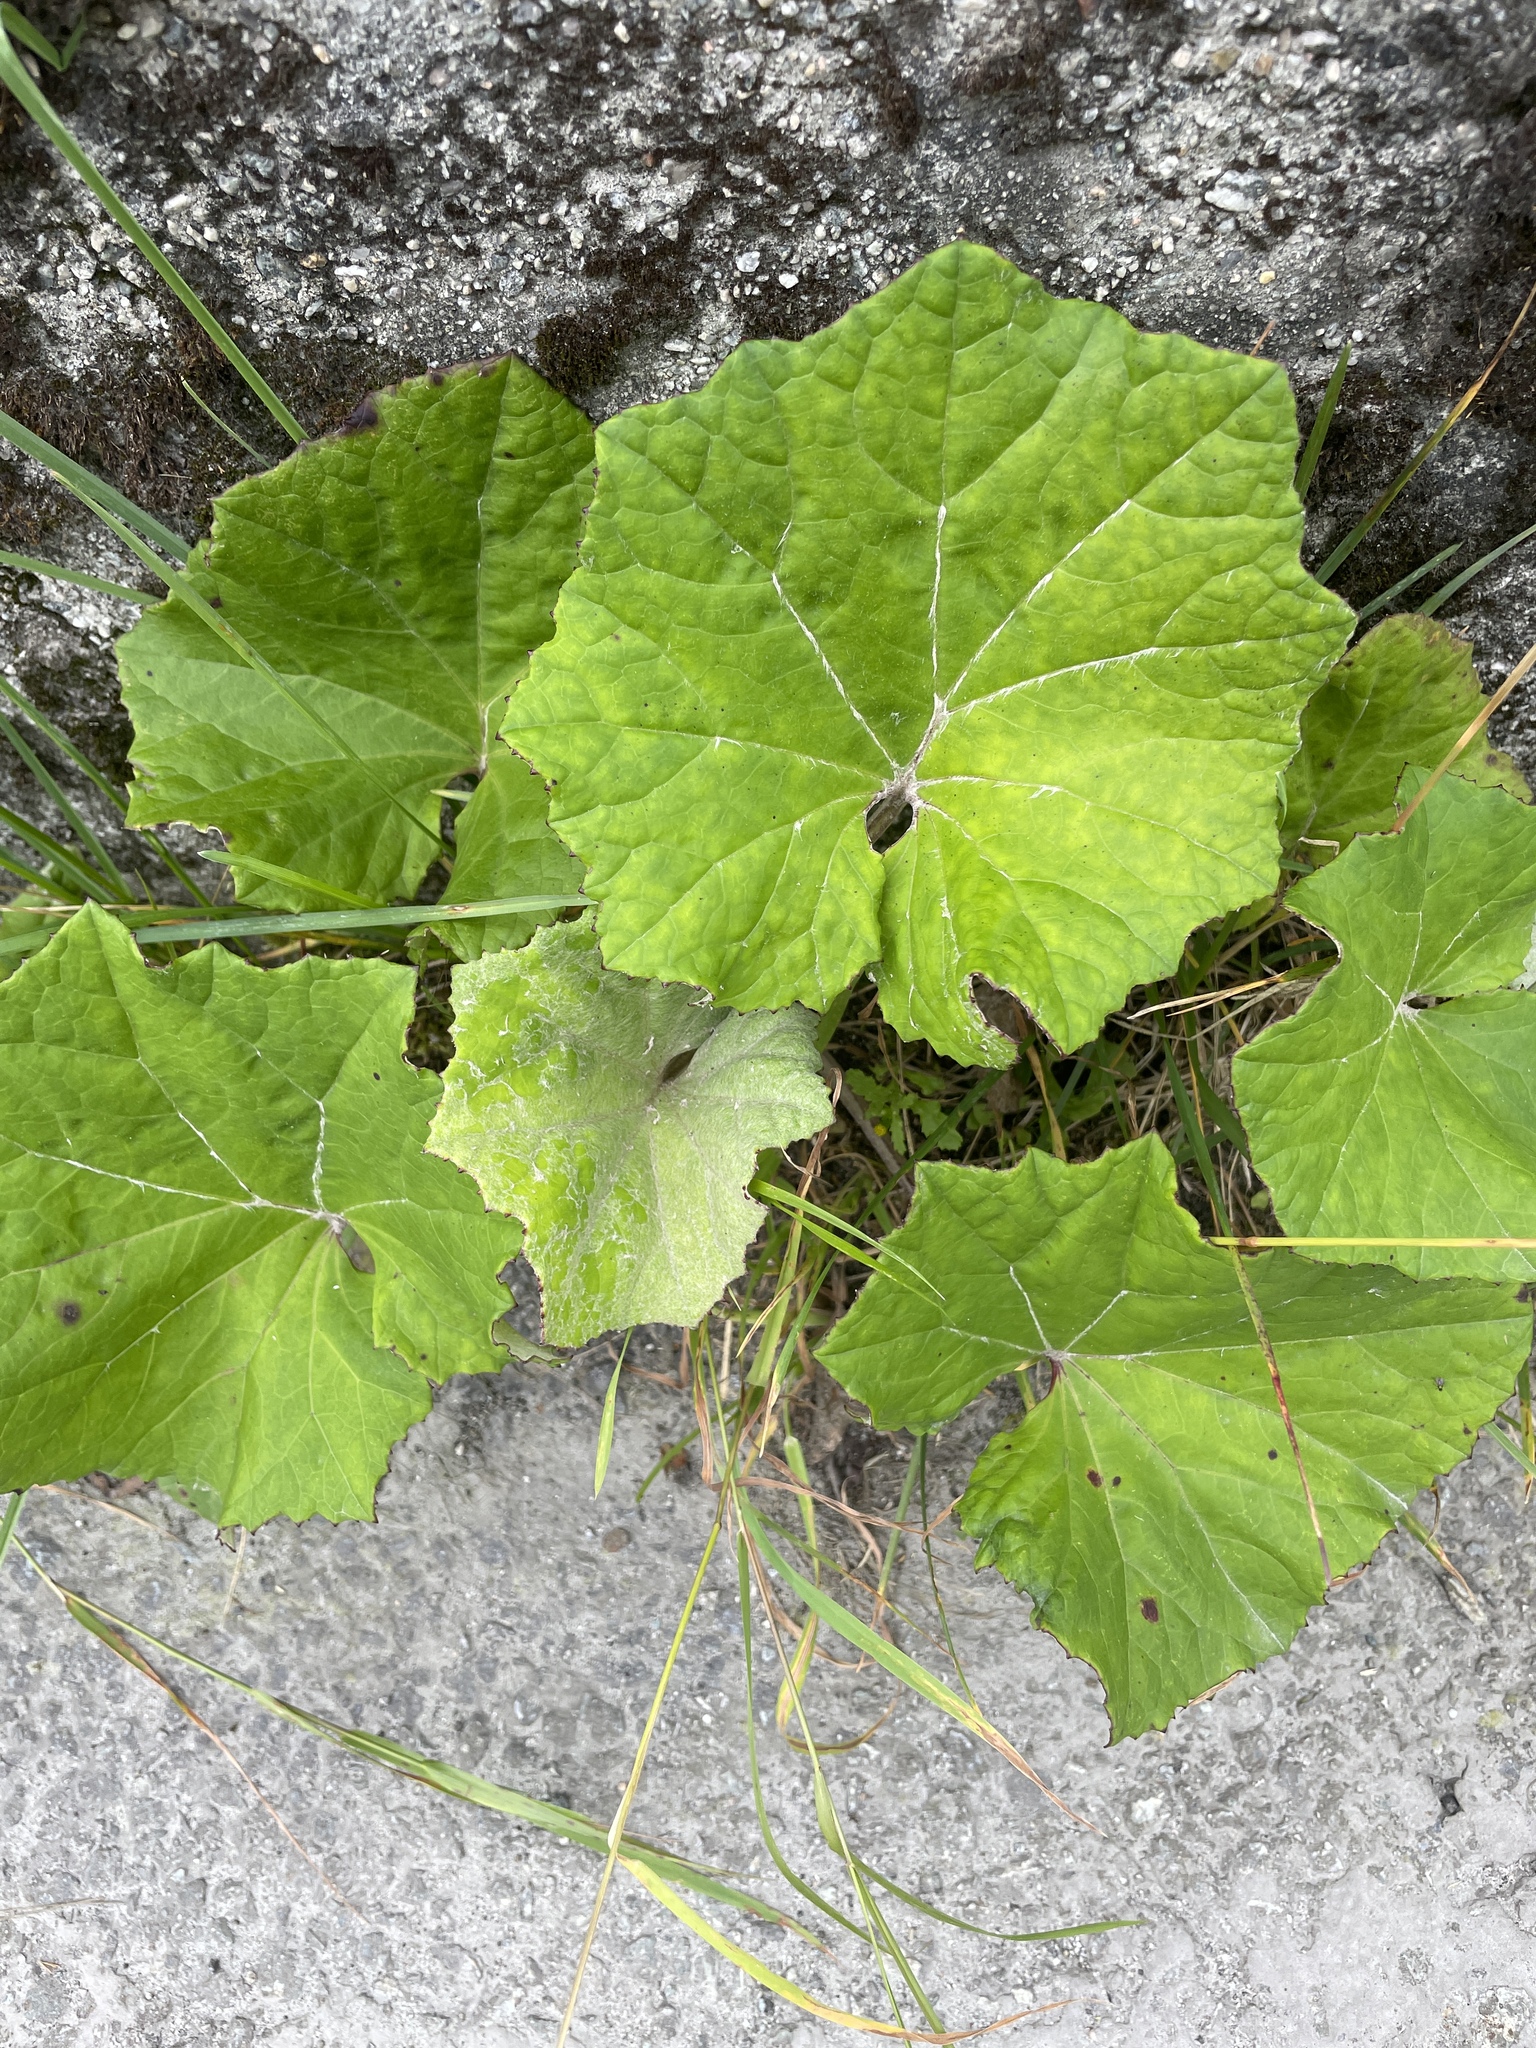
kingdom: Plantae
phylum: Tracheophyta
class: Magnoliopsida
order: Asterales
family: Asteraceae
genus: Tussilago
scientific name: Tussilago farfara
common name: Coltsfoot
